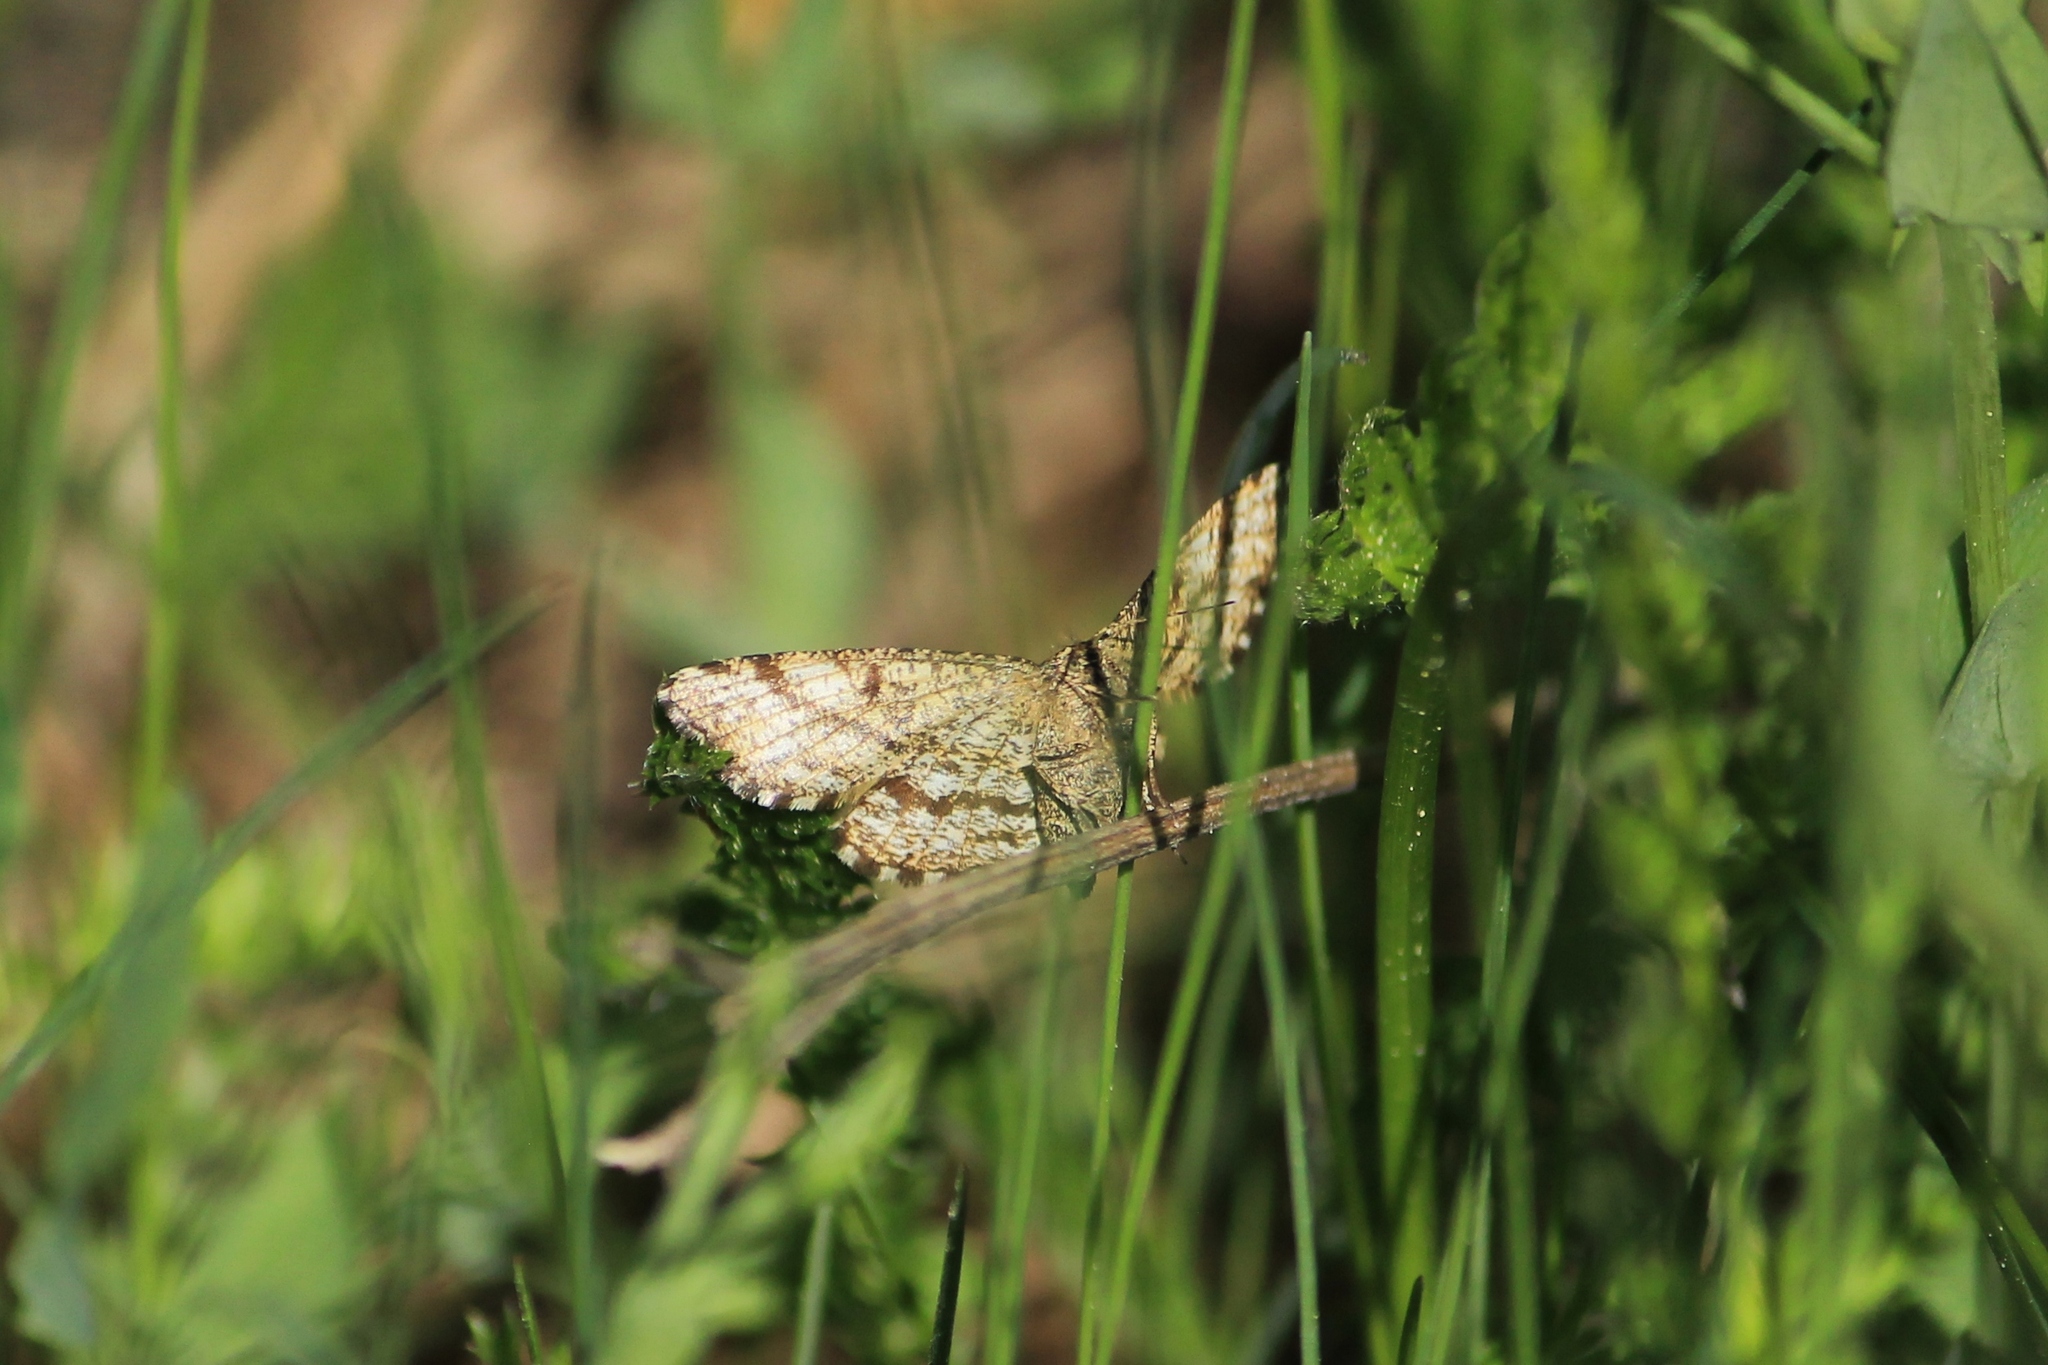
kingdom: Animalia
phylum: Arthropoda
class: Insecta
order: Lepidoptera
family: Geometridae
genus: Ematurga
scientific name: Ematurga atomaria
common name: Common heath
